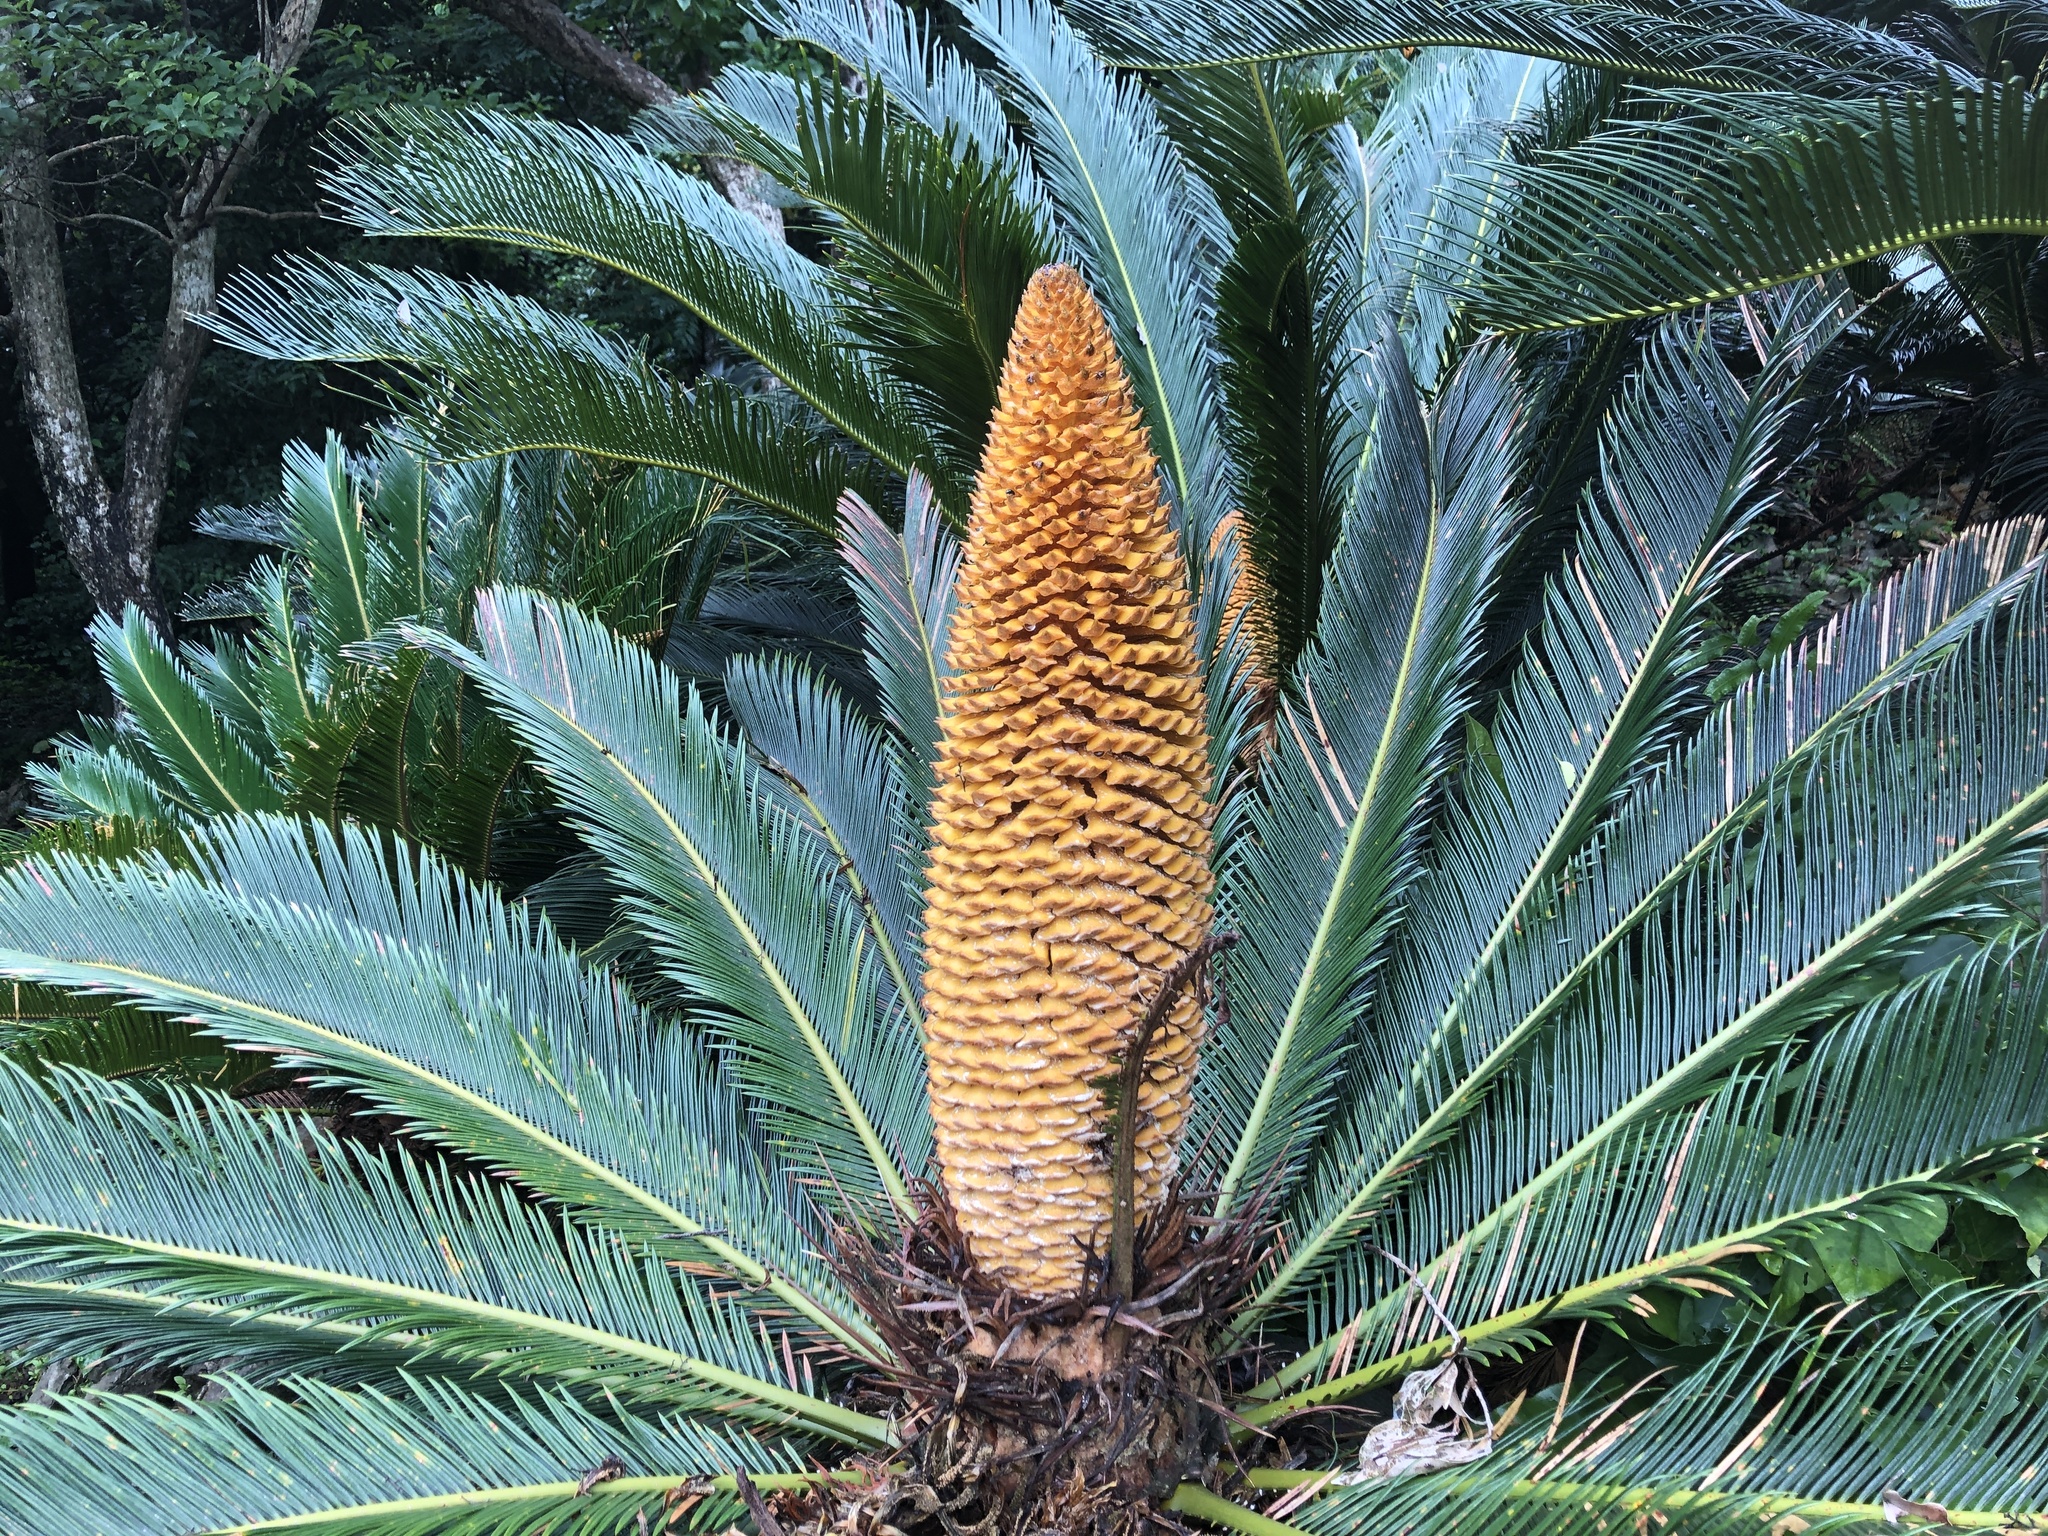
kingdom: Plantae
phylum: Tracheophyta
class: Cycadopsida
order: Cycadales
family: Cycadaceae
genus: Cycas
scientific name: Cycas revoluta
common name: Sago palm
